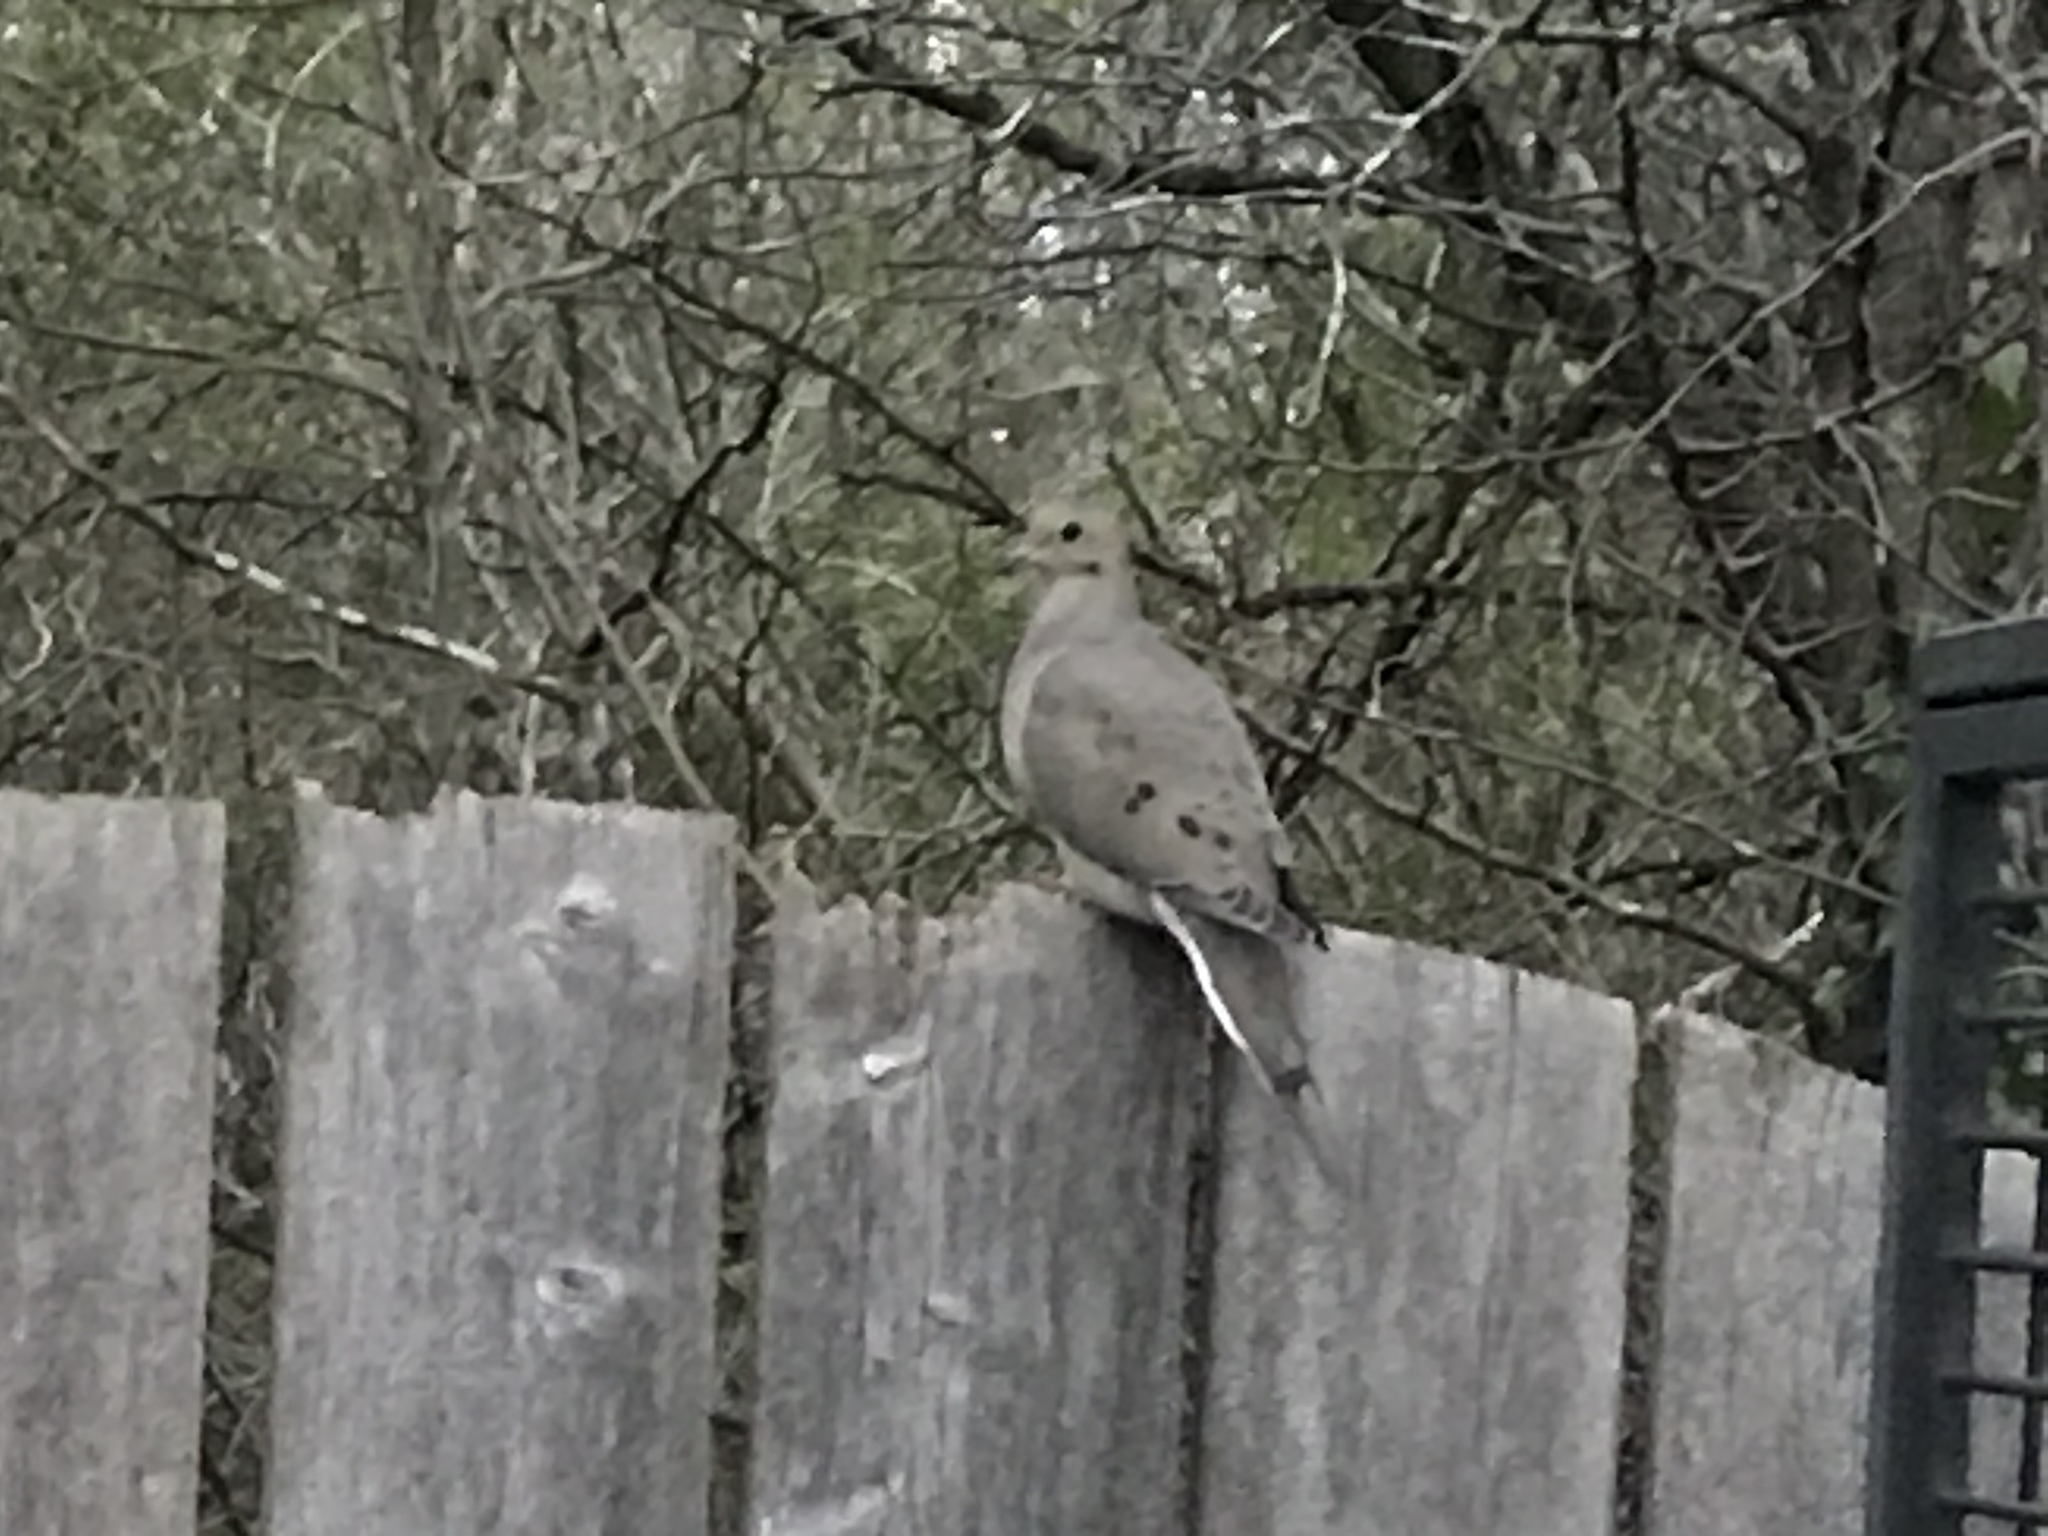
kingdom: Animalia
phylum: Chordata
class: Aves
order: Columbiformes
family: Columbidae
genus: Zenaida
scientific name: Zenaida macroura
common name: Mourning dove
